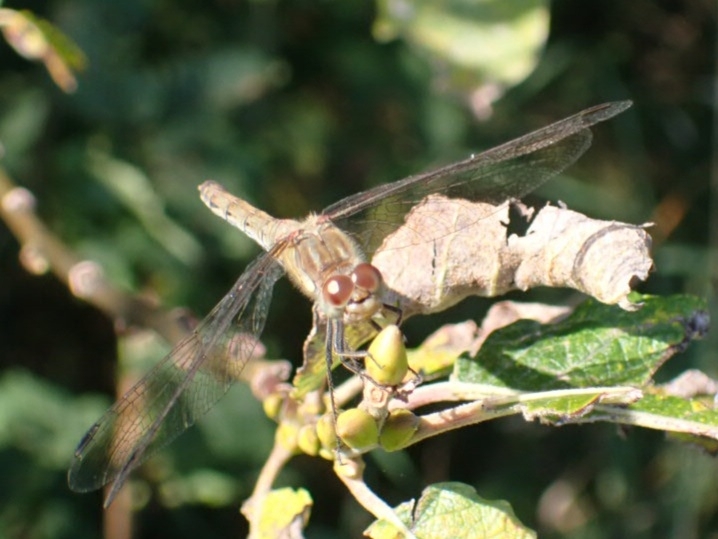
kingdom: Animalia
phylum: Arthropoda
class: Insecta
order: Odonata
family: Libellulidae
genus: Sympetrum
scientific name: Sympetrum striolatum
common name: Common darter
